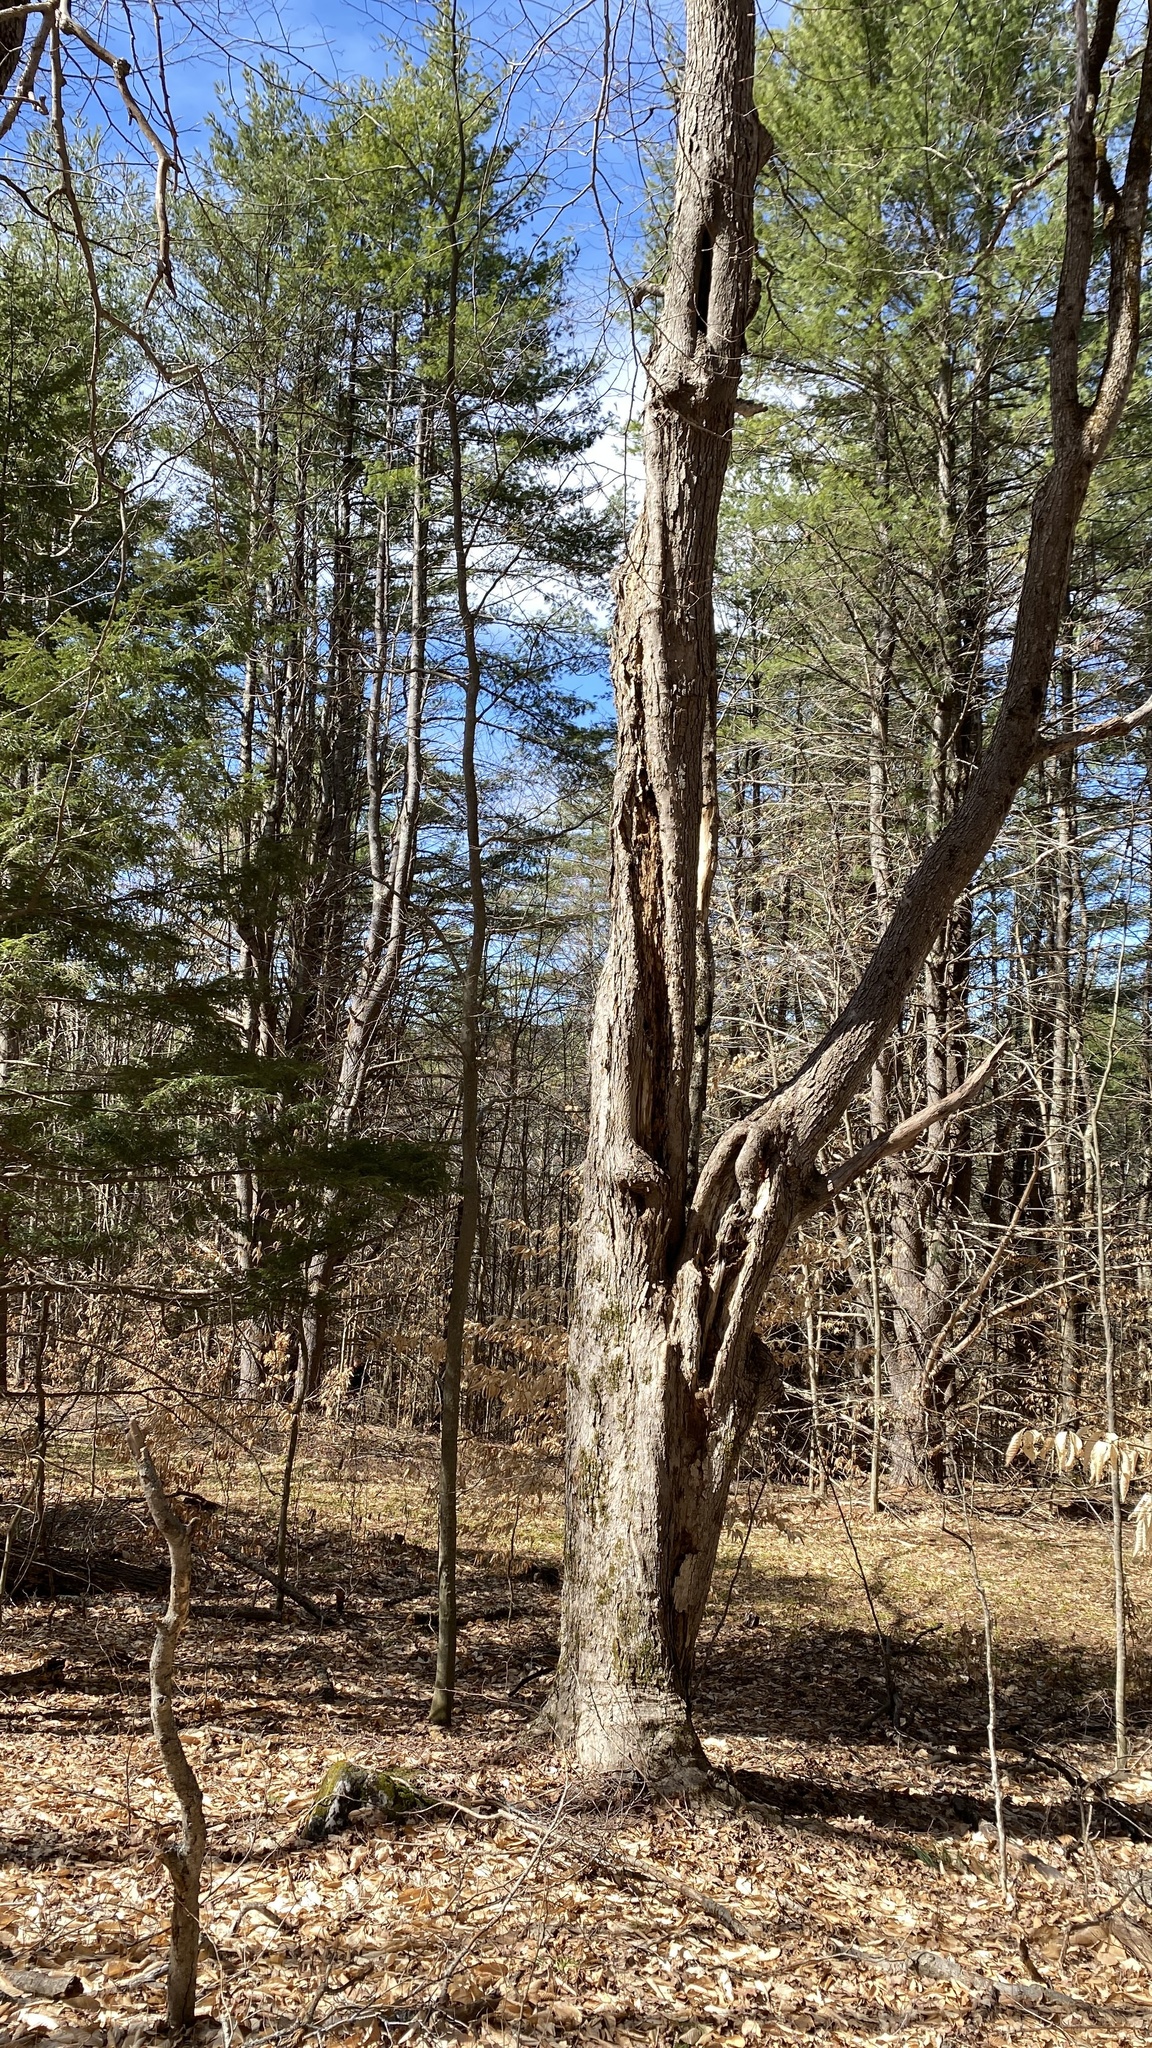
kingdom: Plantae
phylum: Tracheophyta
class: Magnoliopsida
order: Sapindales
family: Sapindaceae
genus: Acer
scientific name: Acer saccharum
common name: Sugar maple
